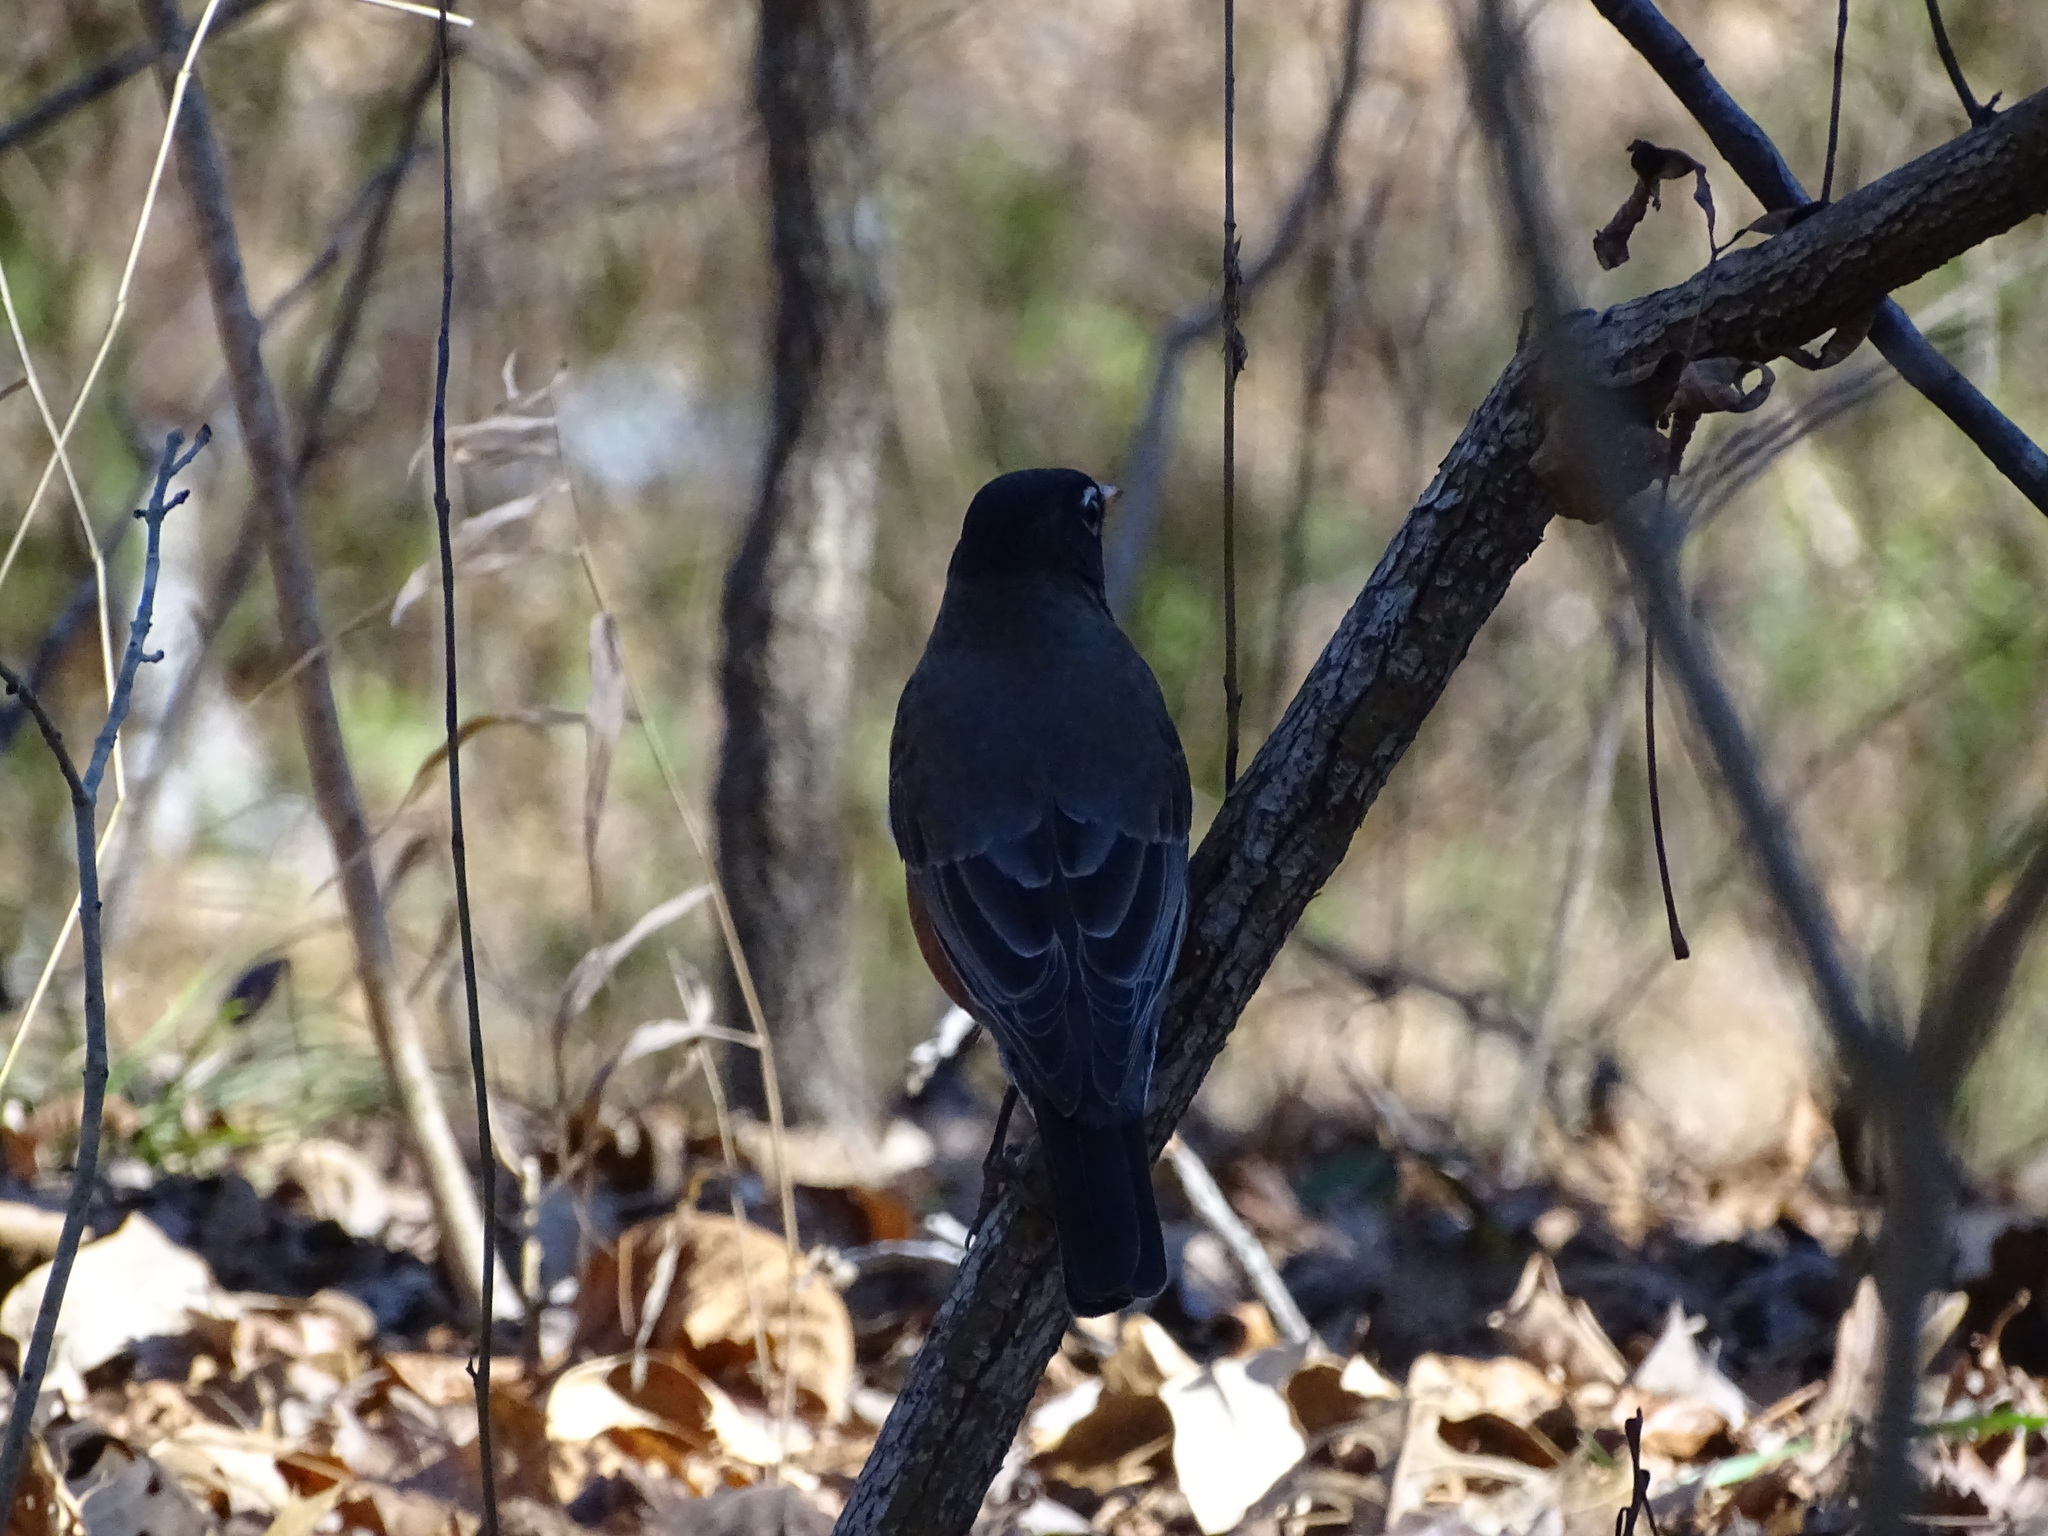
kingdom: Animalia
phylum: Chordata
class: Aves
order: Passeriformes
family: Turdidae
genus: Turdus
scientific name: Turdus migratorius
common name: American robin
